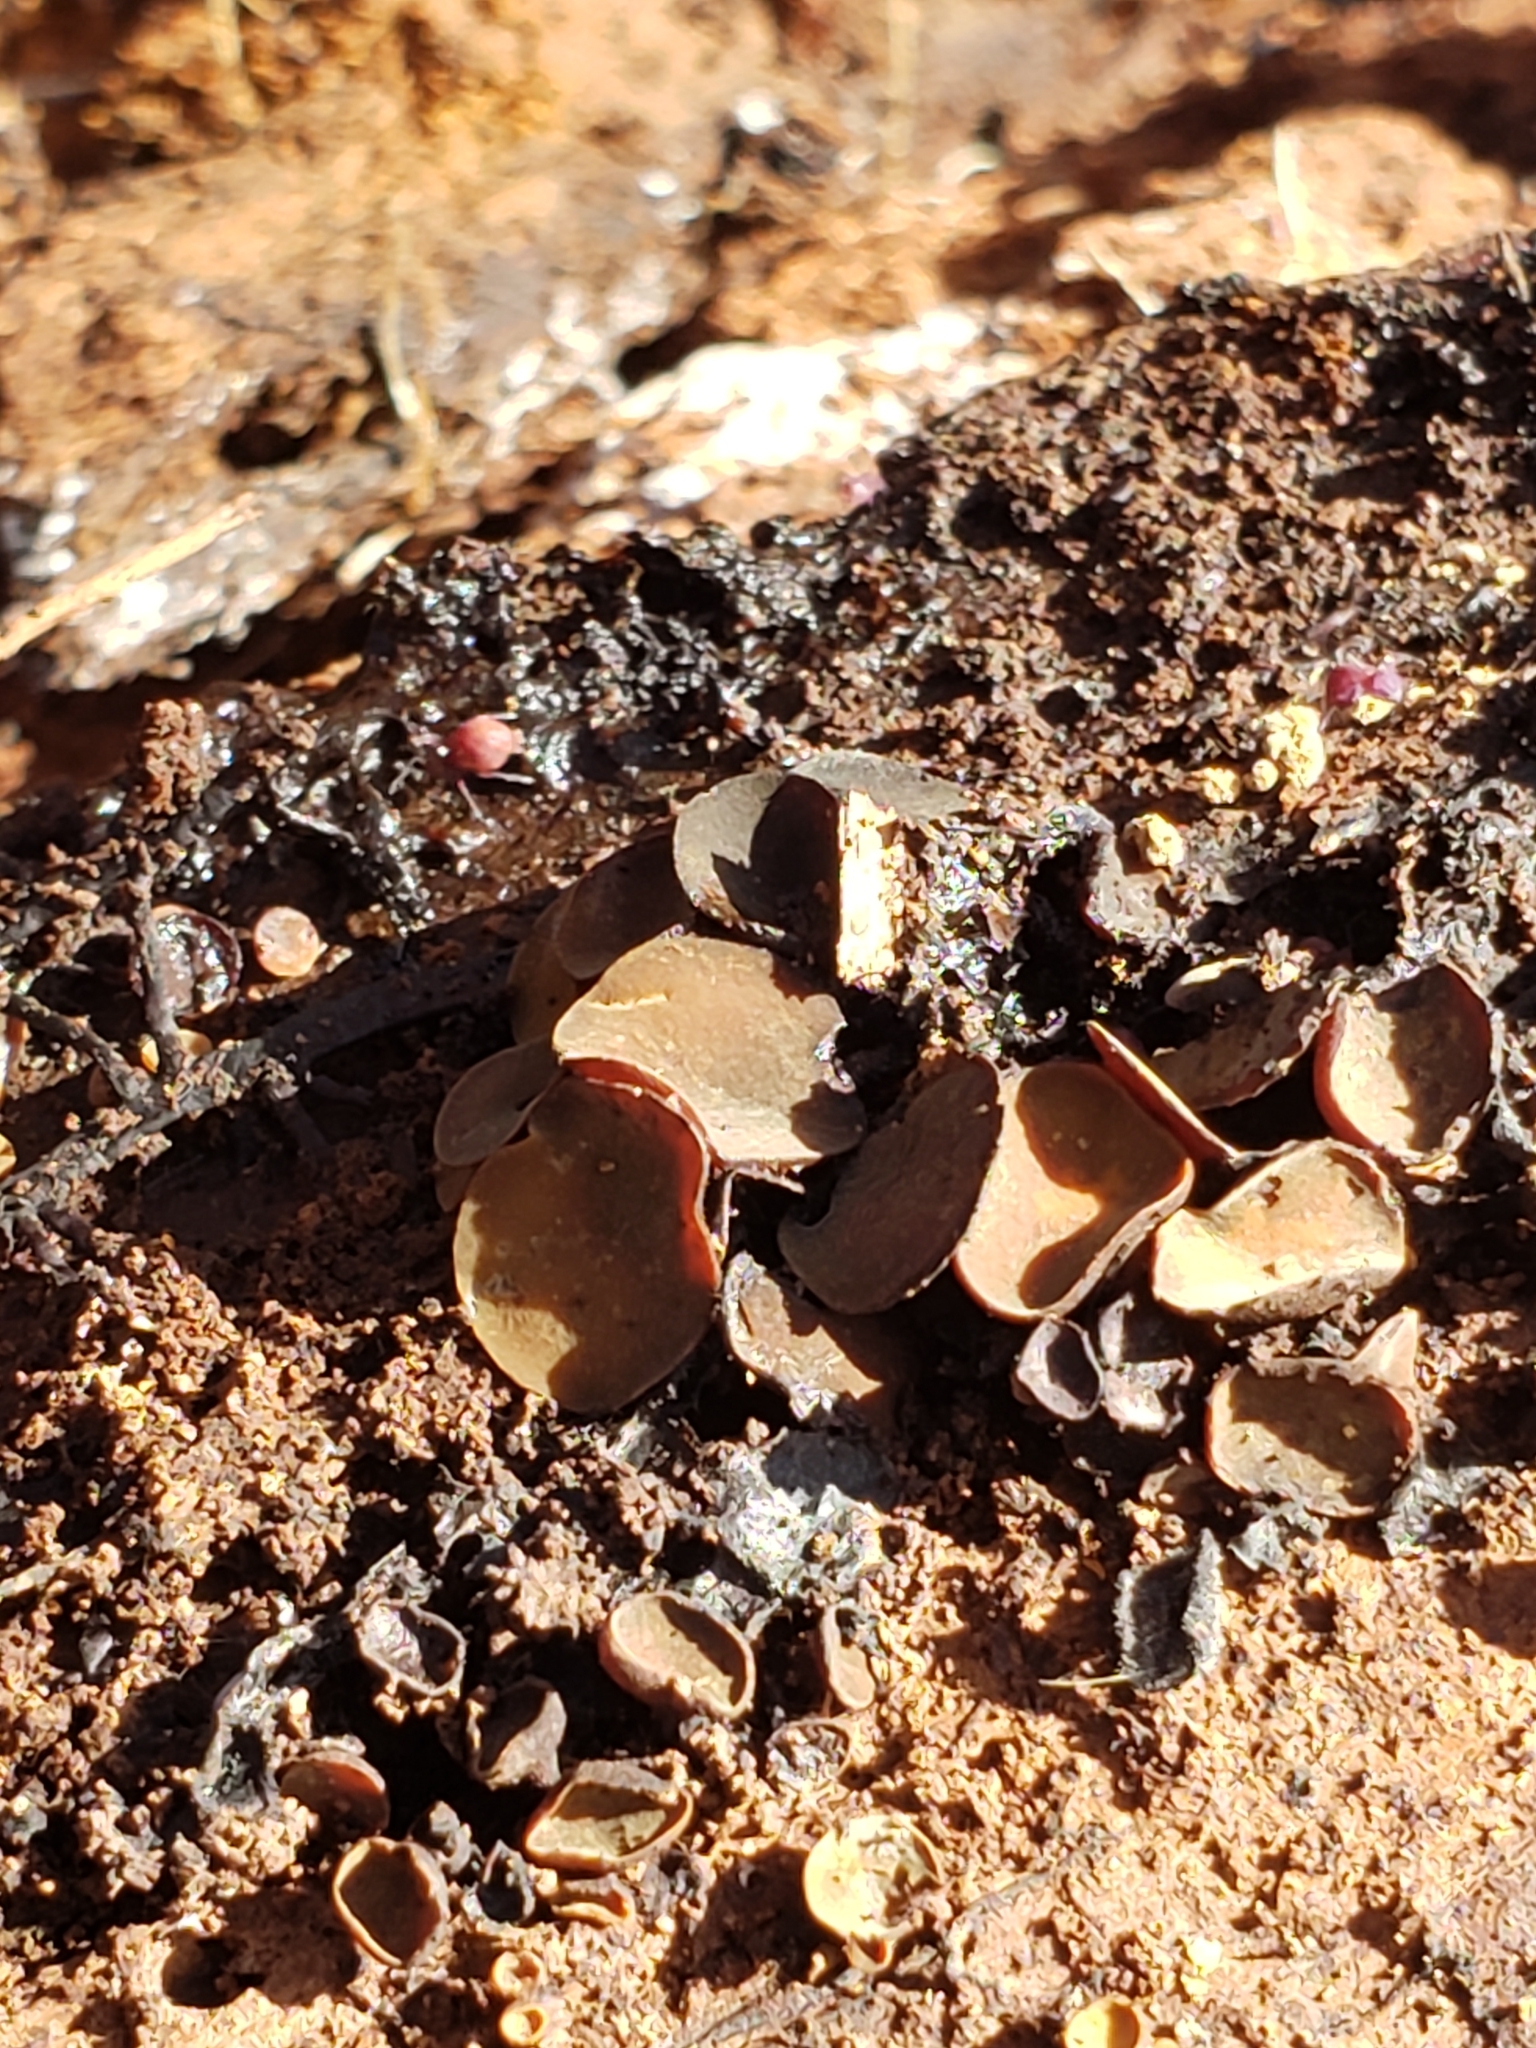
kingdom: Fungi
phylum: Ascomycota
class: Leotiomycetes
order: Helotiales
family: Cenangiaceae
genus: Chlorencoelia
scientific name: Chlorencoelia
